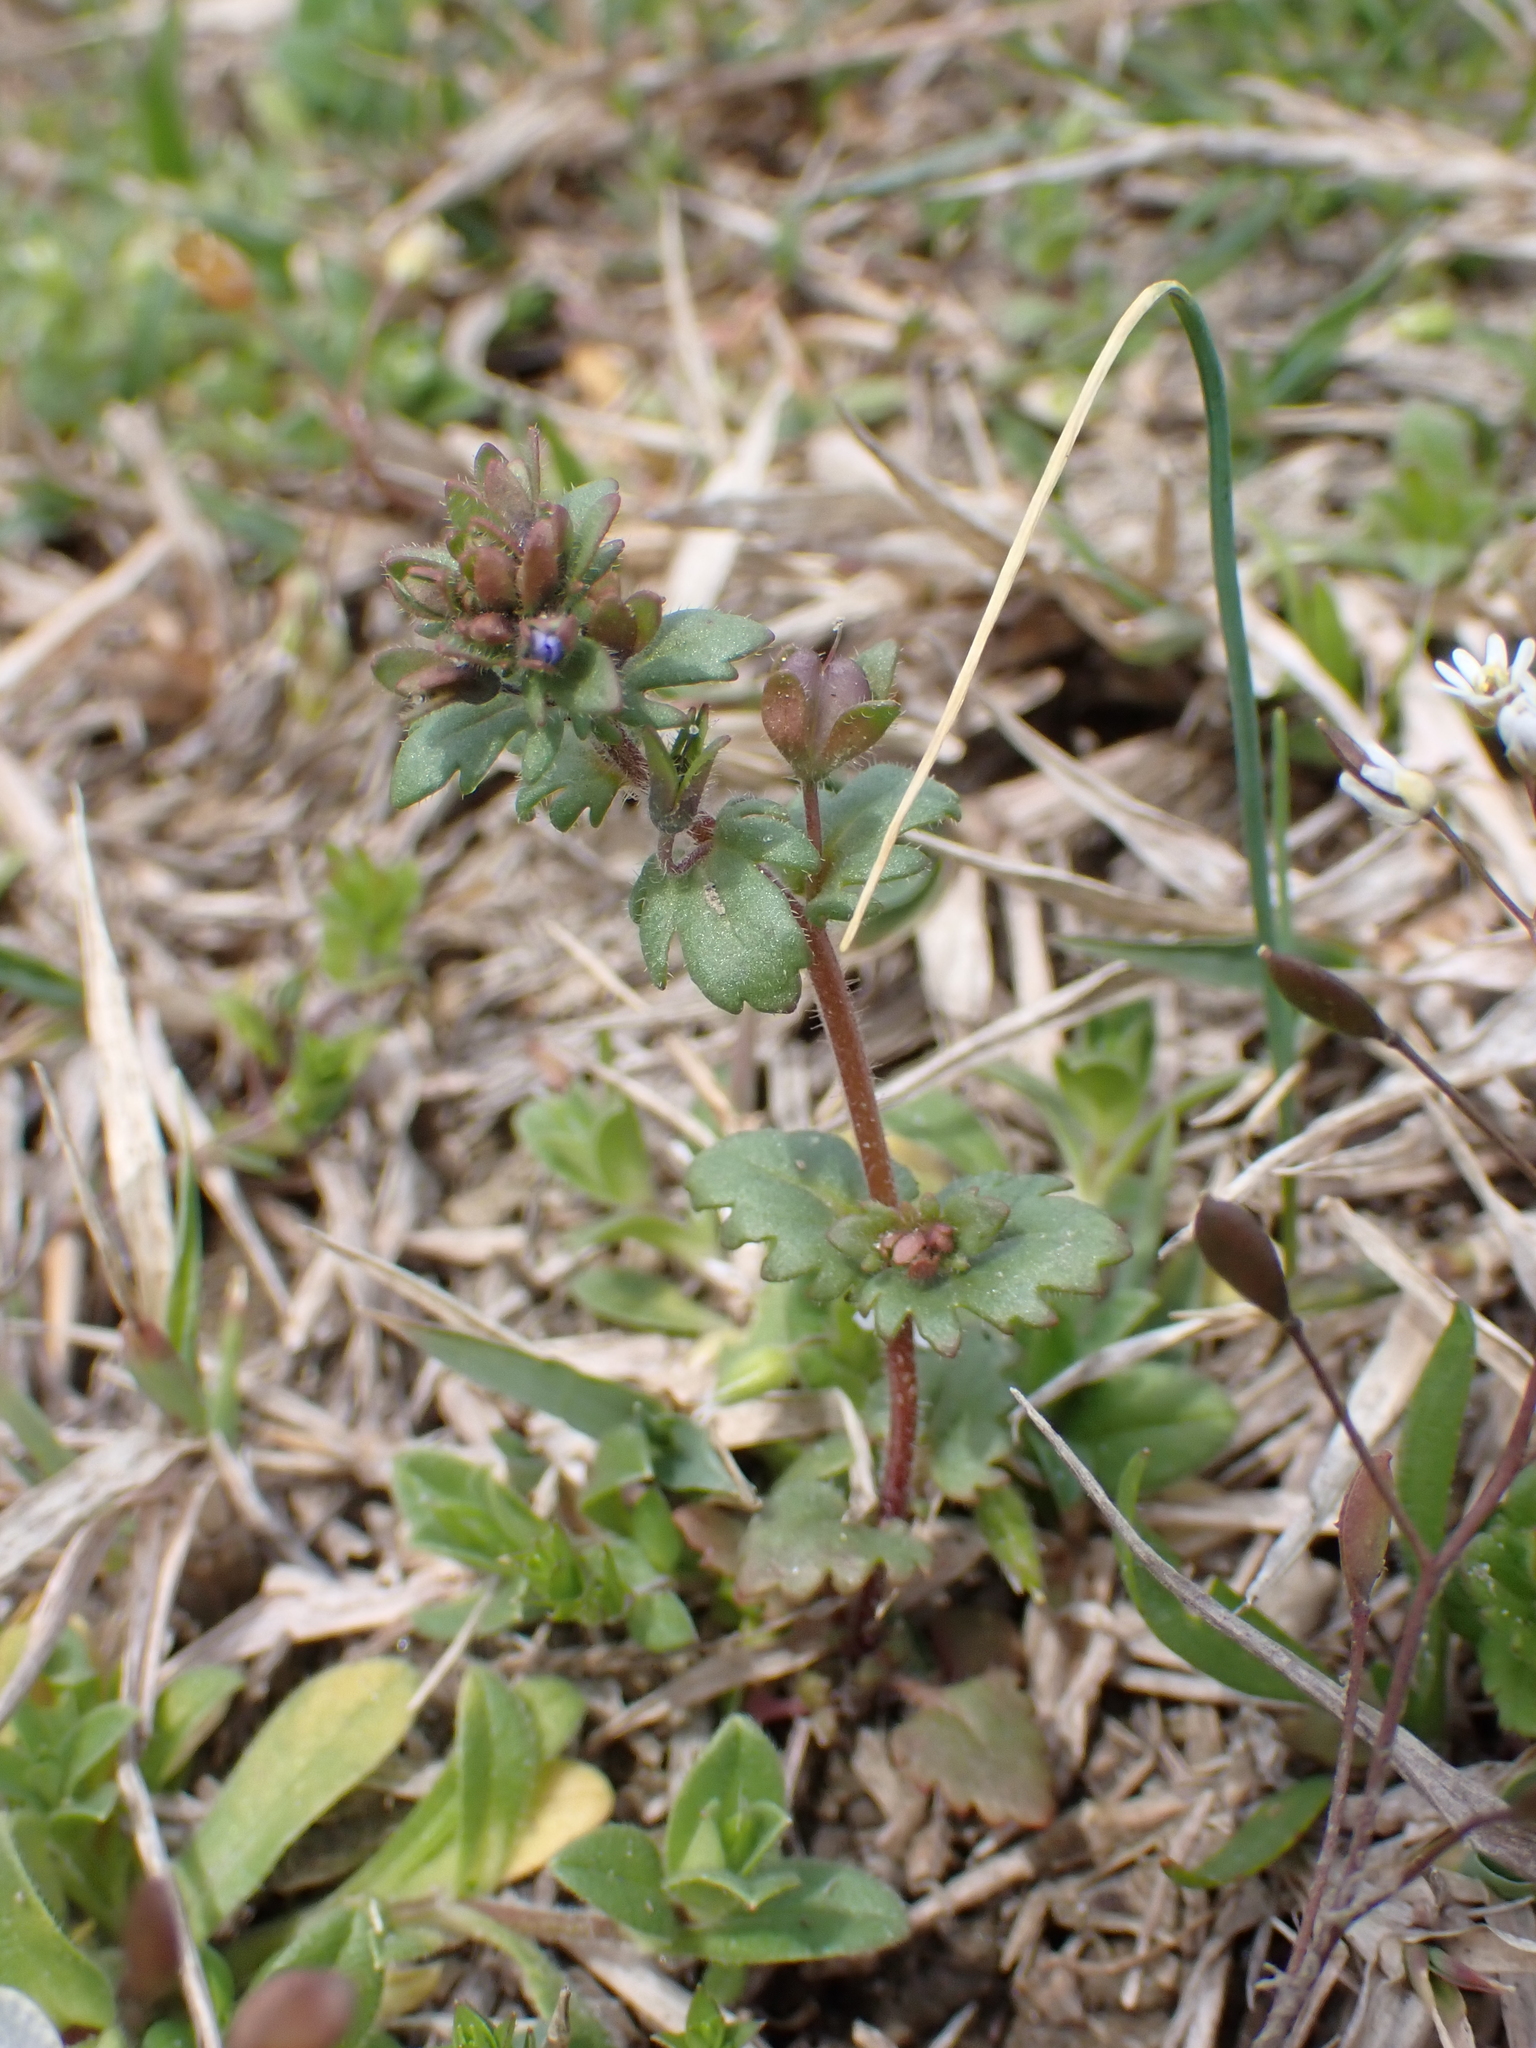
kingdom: Plantae
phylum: Tracheophyta
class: Magnoliopsida
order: Lamiales
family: Plantaginaceae
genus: Veronica
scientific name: Veronica praecox
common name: Breckland speedwell
